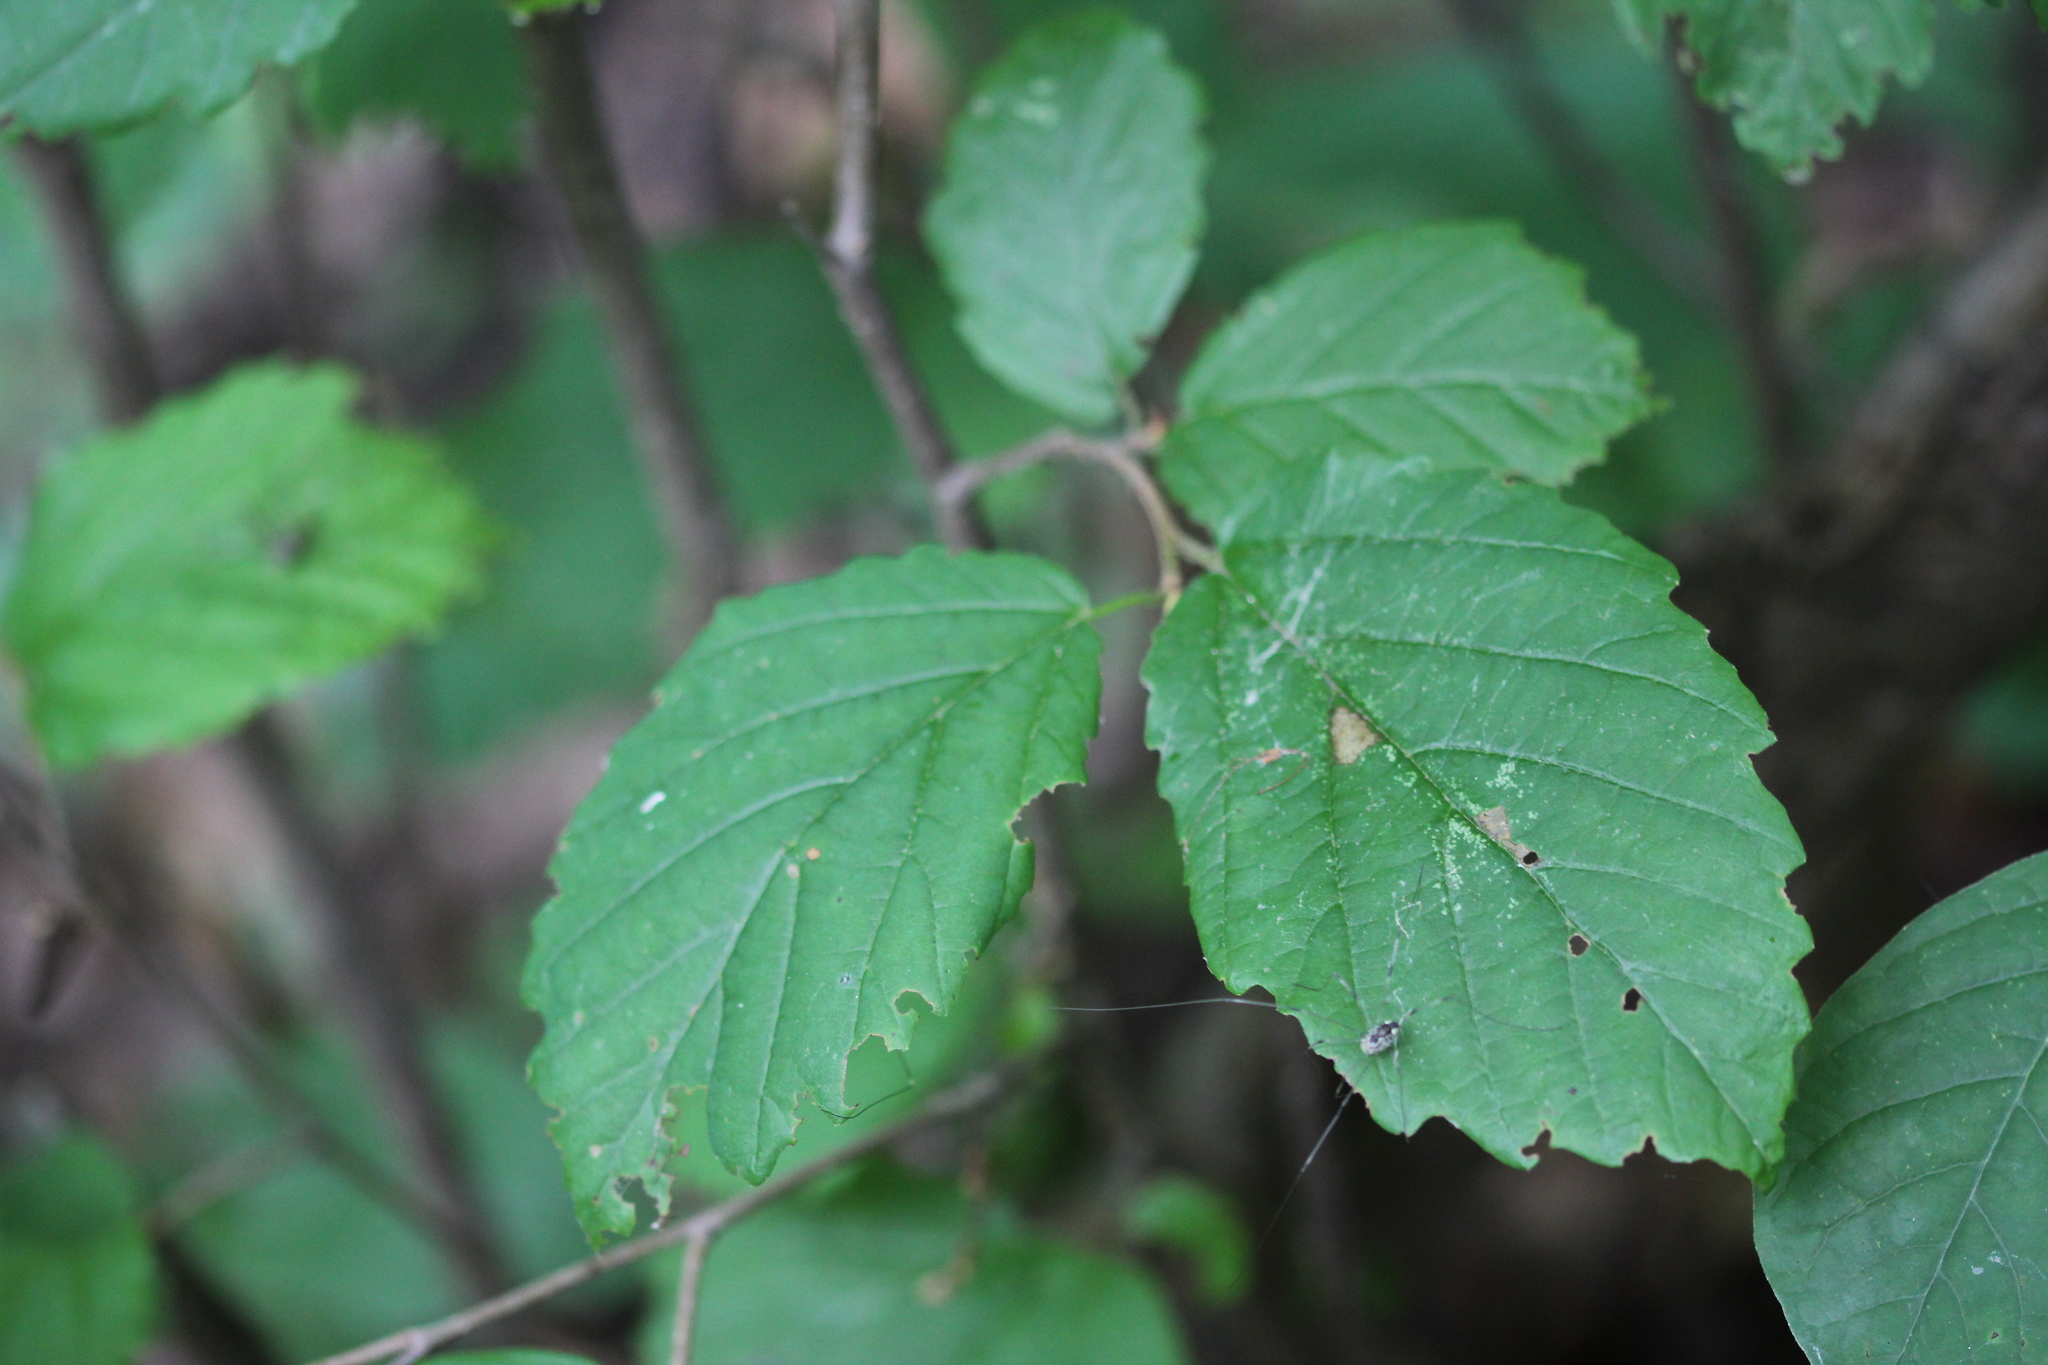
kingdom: Plantae
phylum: Tracheophyta
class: Magnoliopsida
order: Saxifragales
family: Hamamelidaceae
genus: Hamamelis
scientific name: Hamamelis virginiana
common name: Witch-hazel
